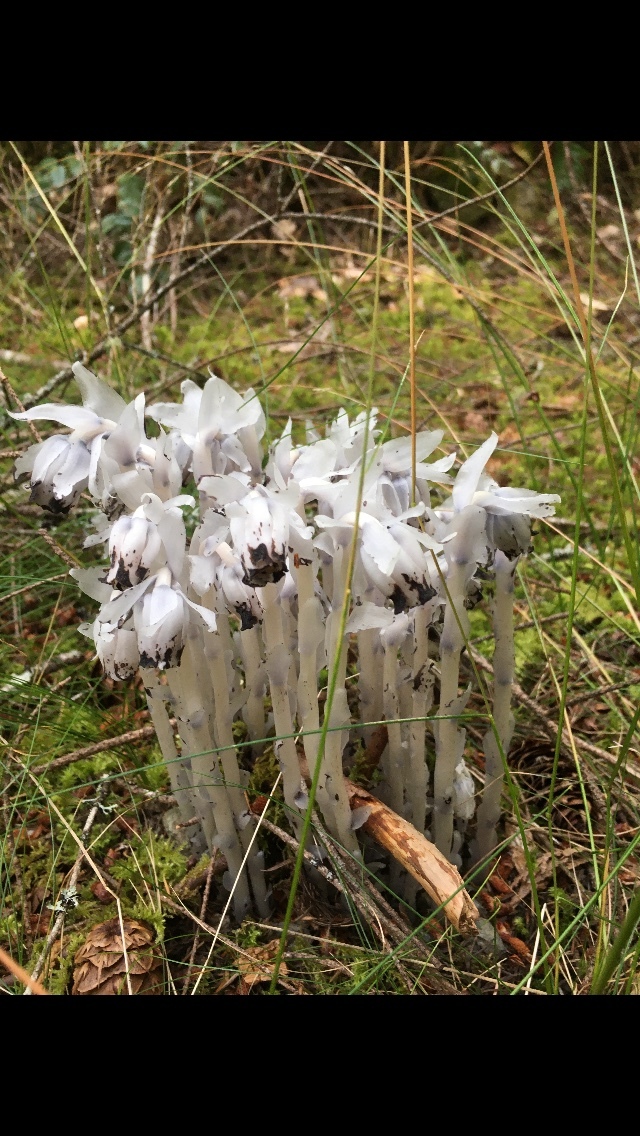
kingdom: Plantae
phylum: Tracheophyta
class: Magnoliopsida
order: Ericales
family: Ericaceae
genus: Monotropa
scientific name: Monotropa uniflora
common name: Convulsion root
